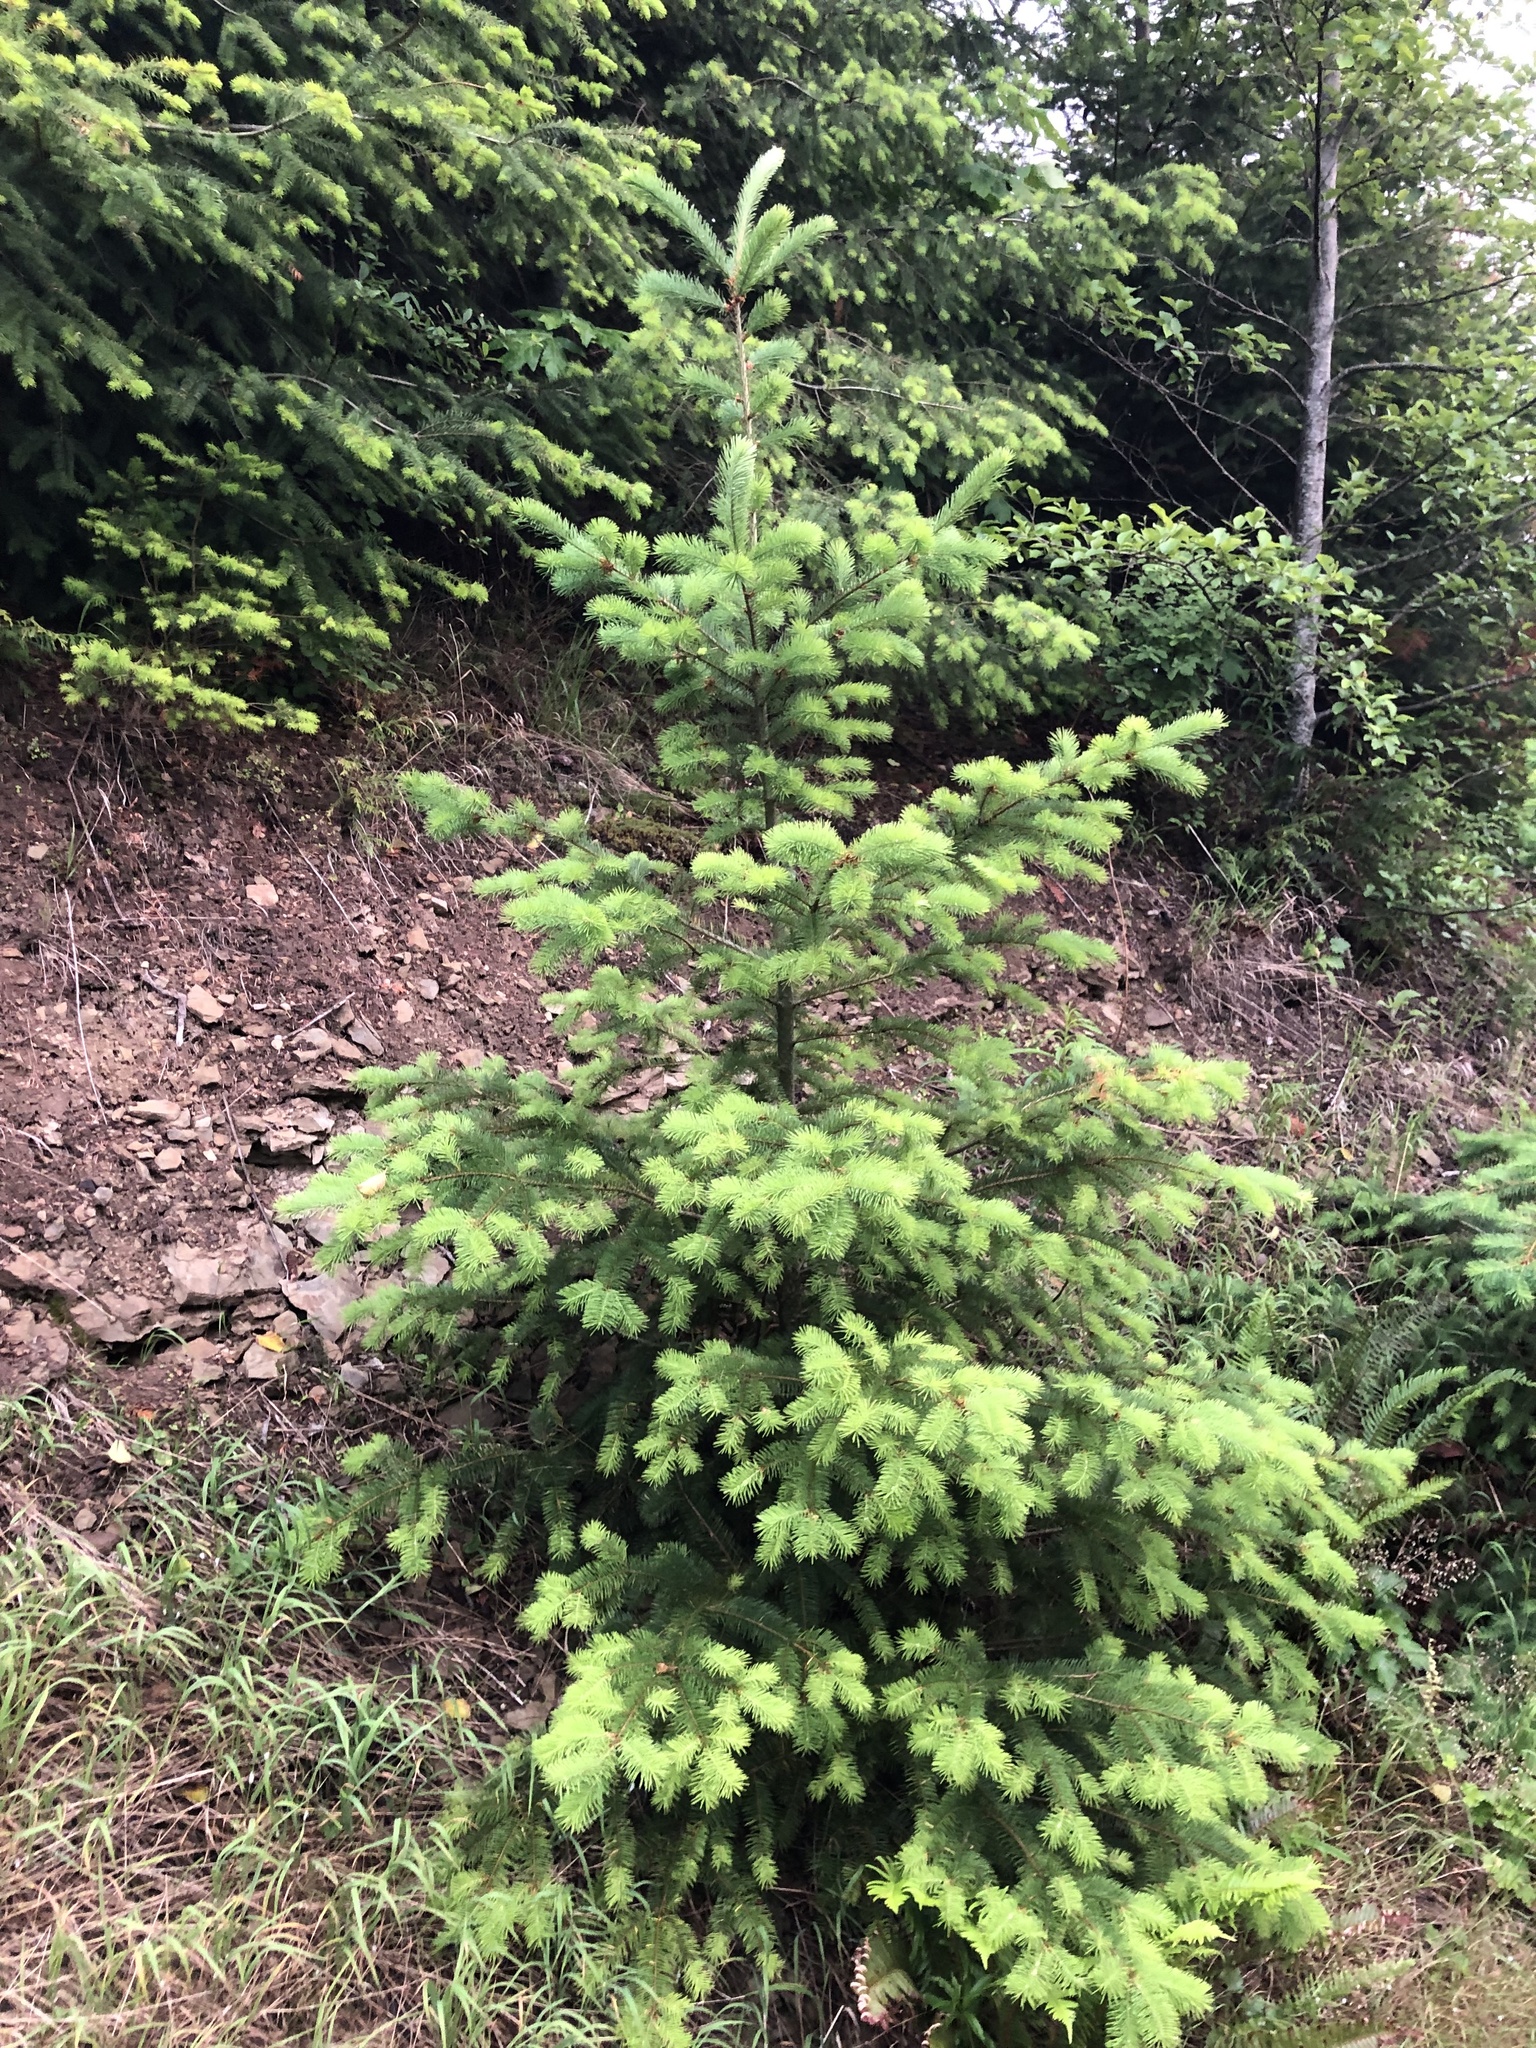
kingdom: Plantae
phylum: Tracheophyta
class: Pinopsida
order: Pinales
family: Pinaceae
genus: Pseudotsuga
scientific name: Pseudotsuga menziesii
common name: Douglas fir
